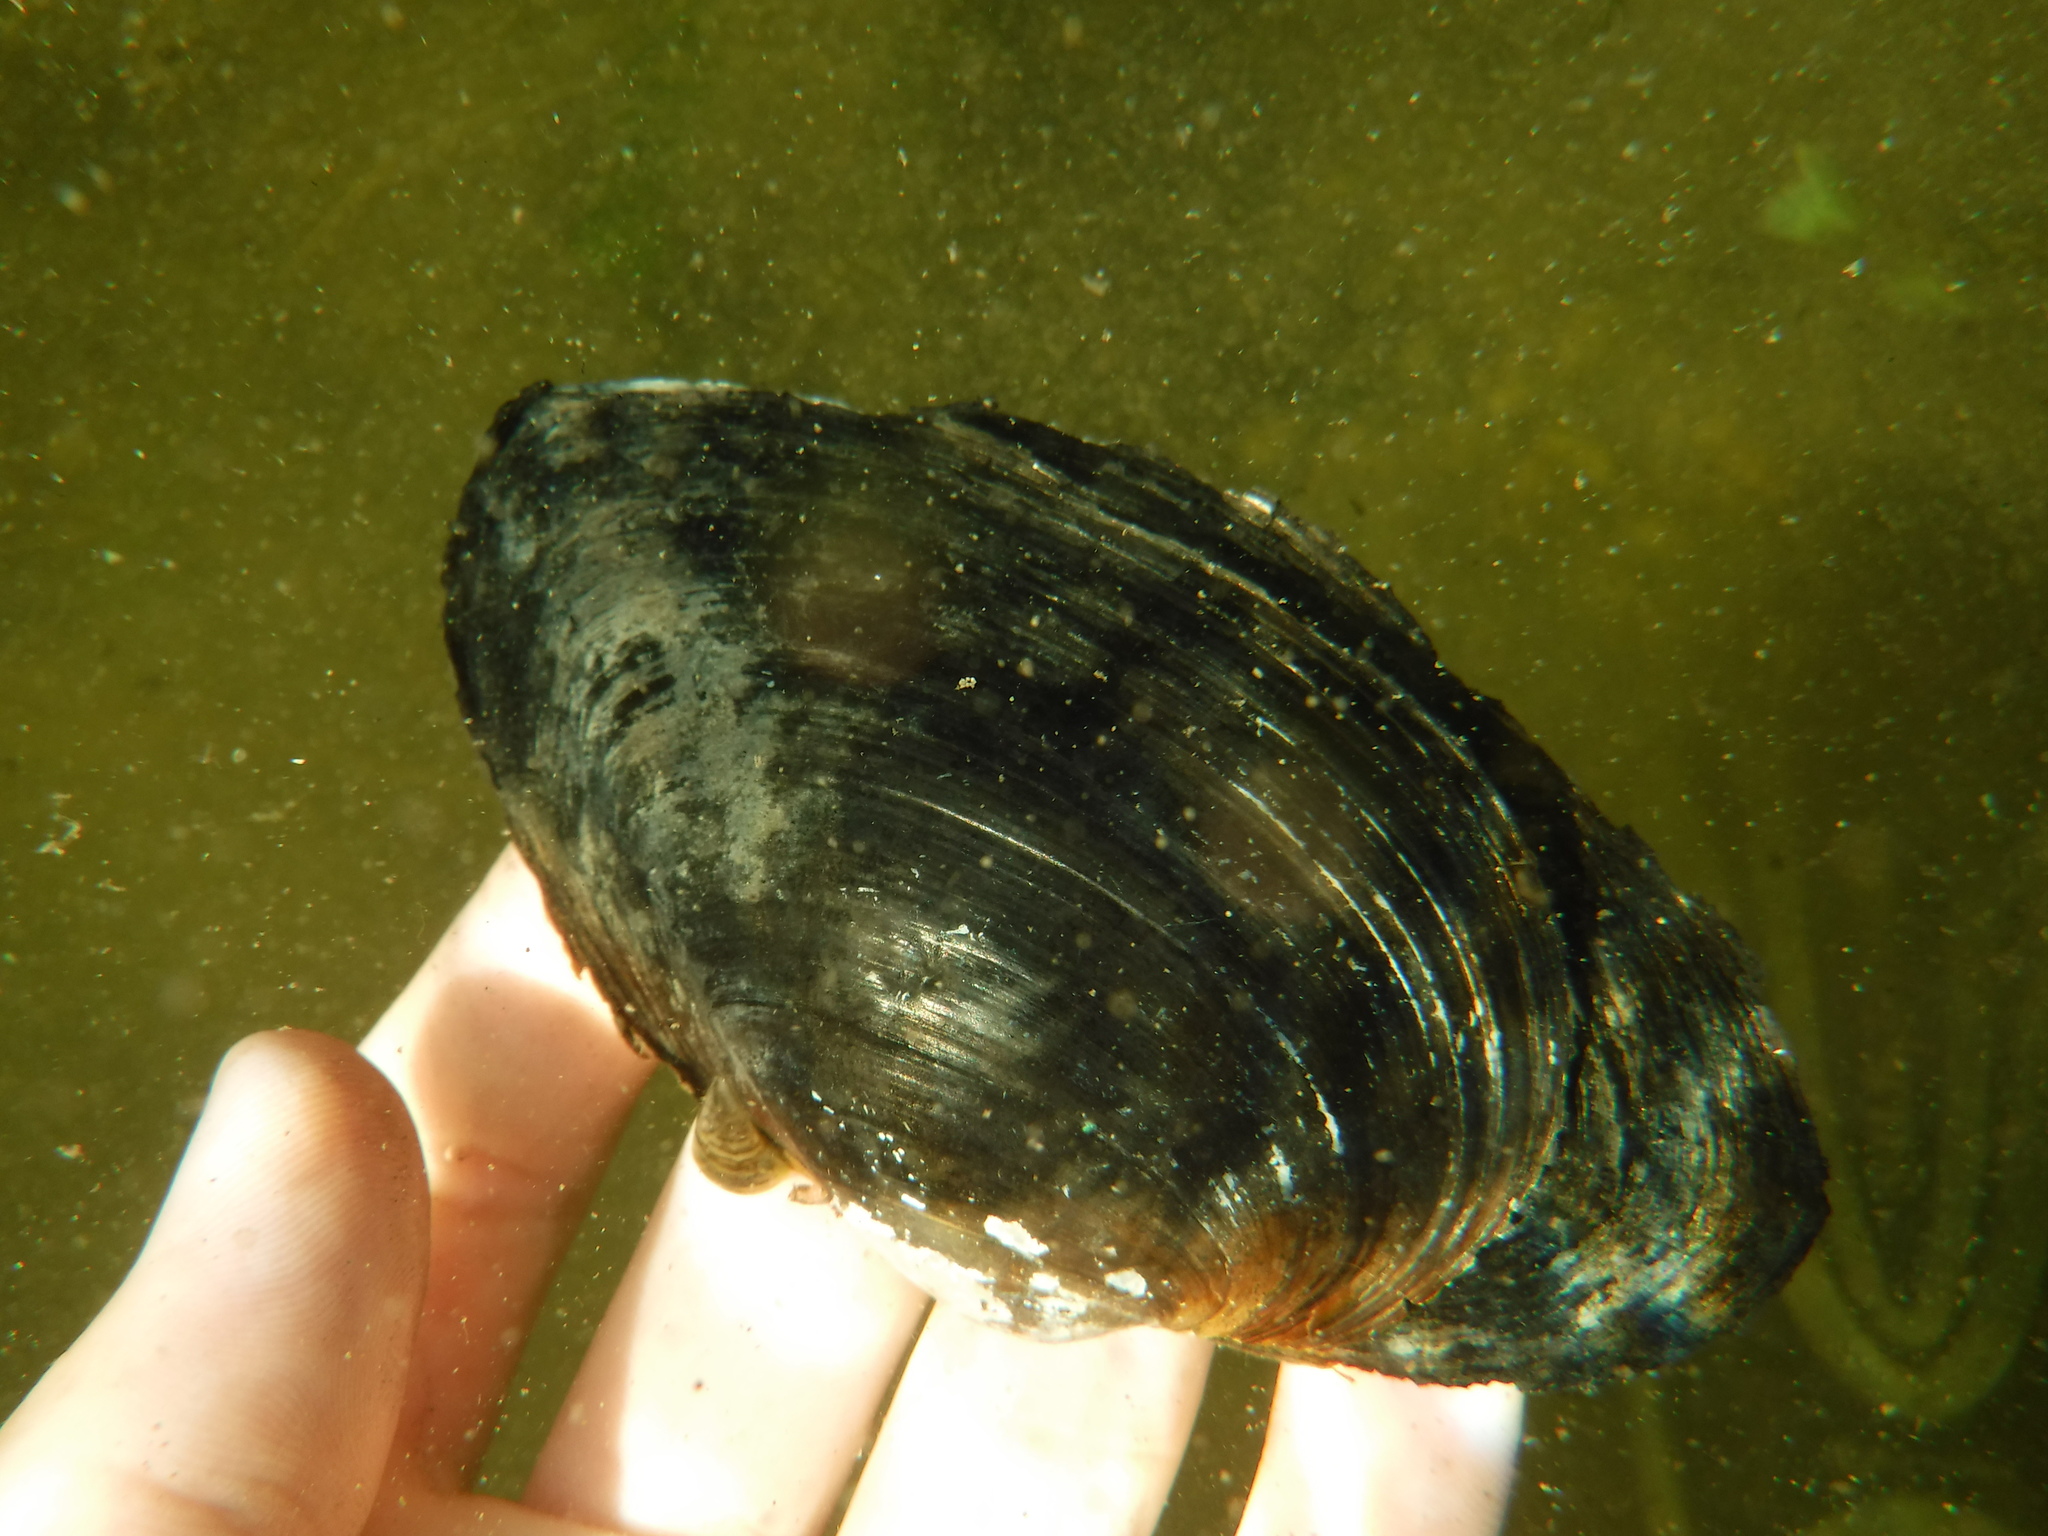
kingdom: Animalia
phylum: Mollusca
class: Bivalvia
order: Unionida
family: Unionidae
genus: Pyganodon
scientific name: Pyganodon grandis
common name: Giant floater
